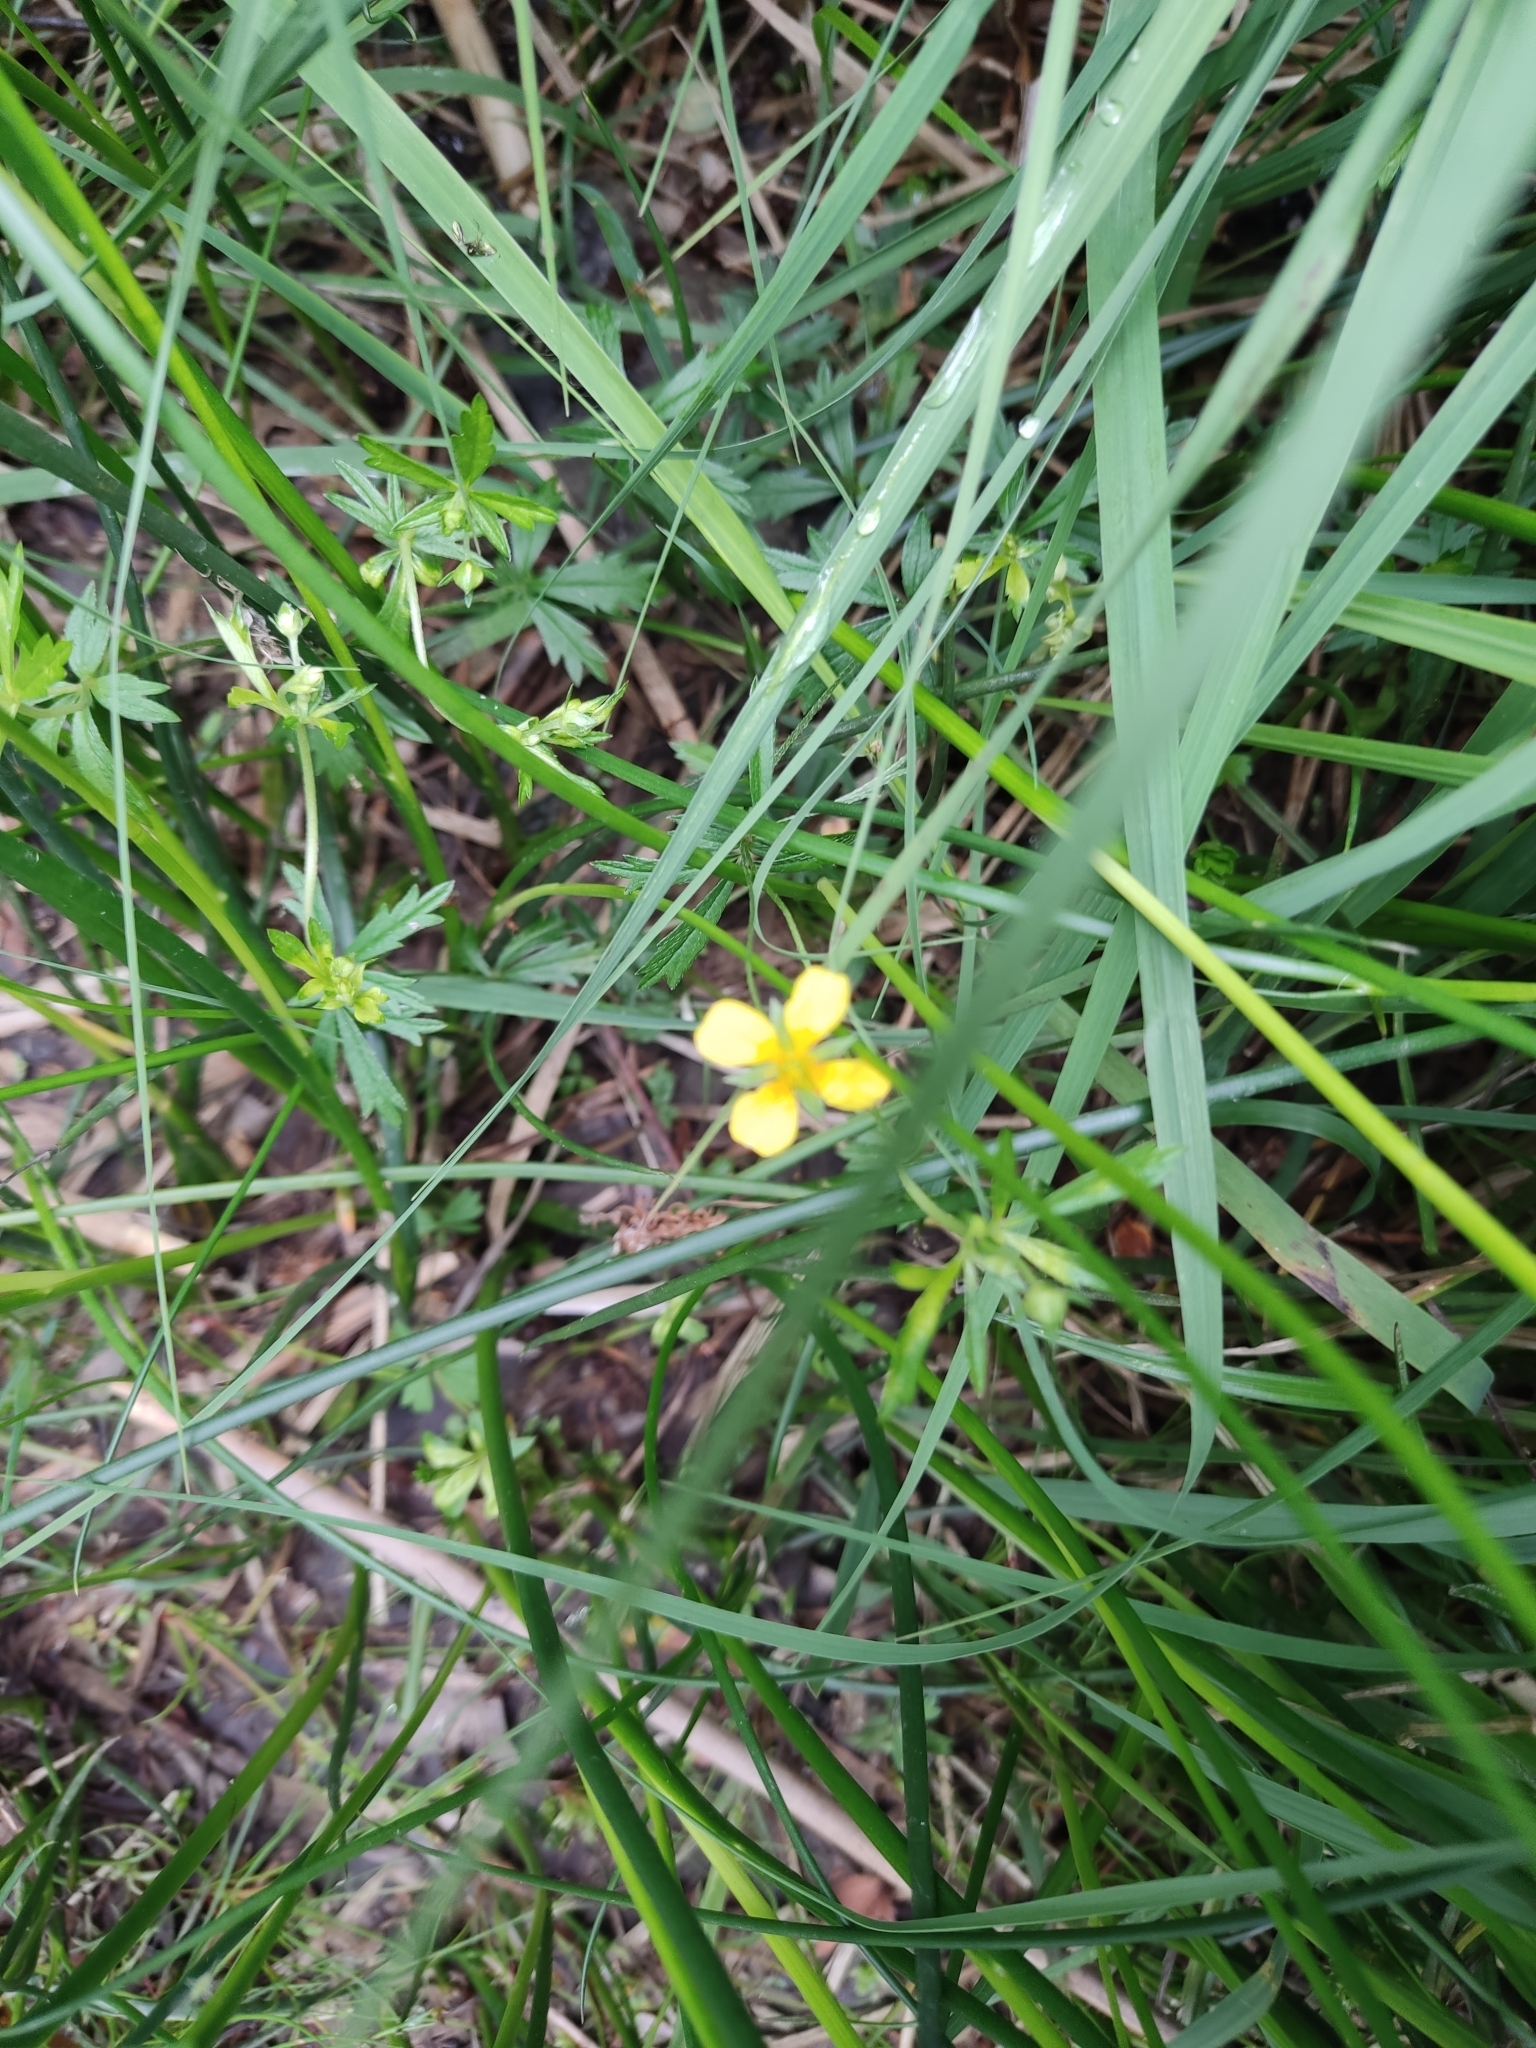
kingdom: Plantae
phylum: Tracheophyta
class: Magnoliopsida
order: Rosales
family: Rosaceae
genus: Potentilla
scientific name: Potentilla erecta
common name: Tormentil
